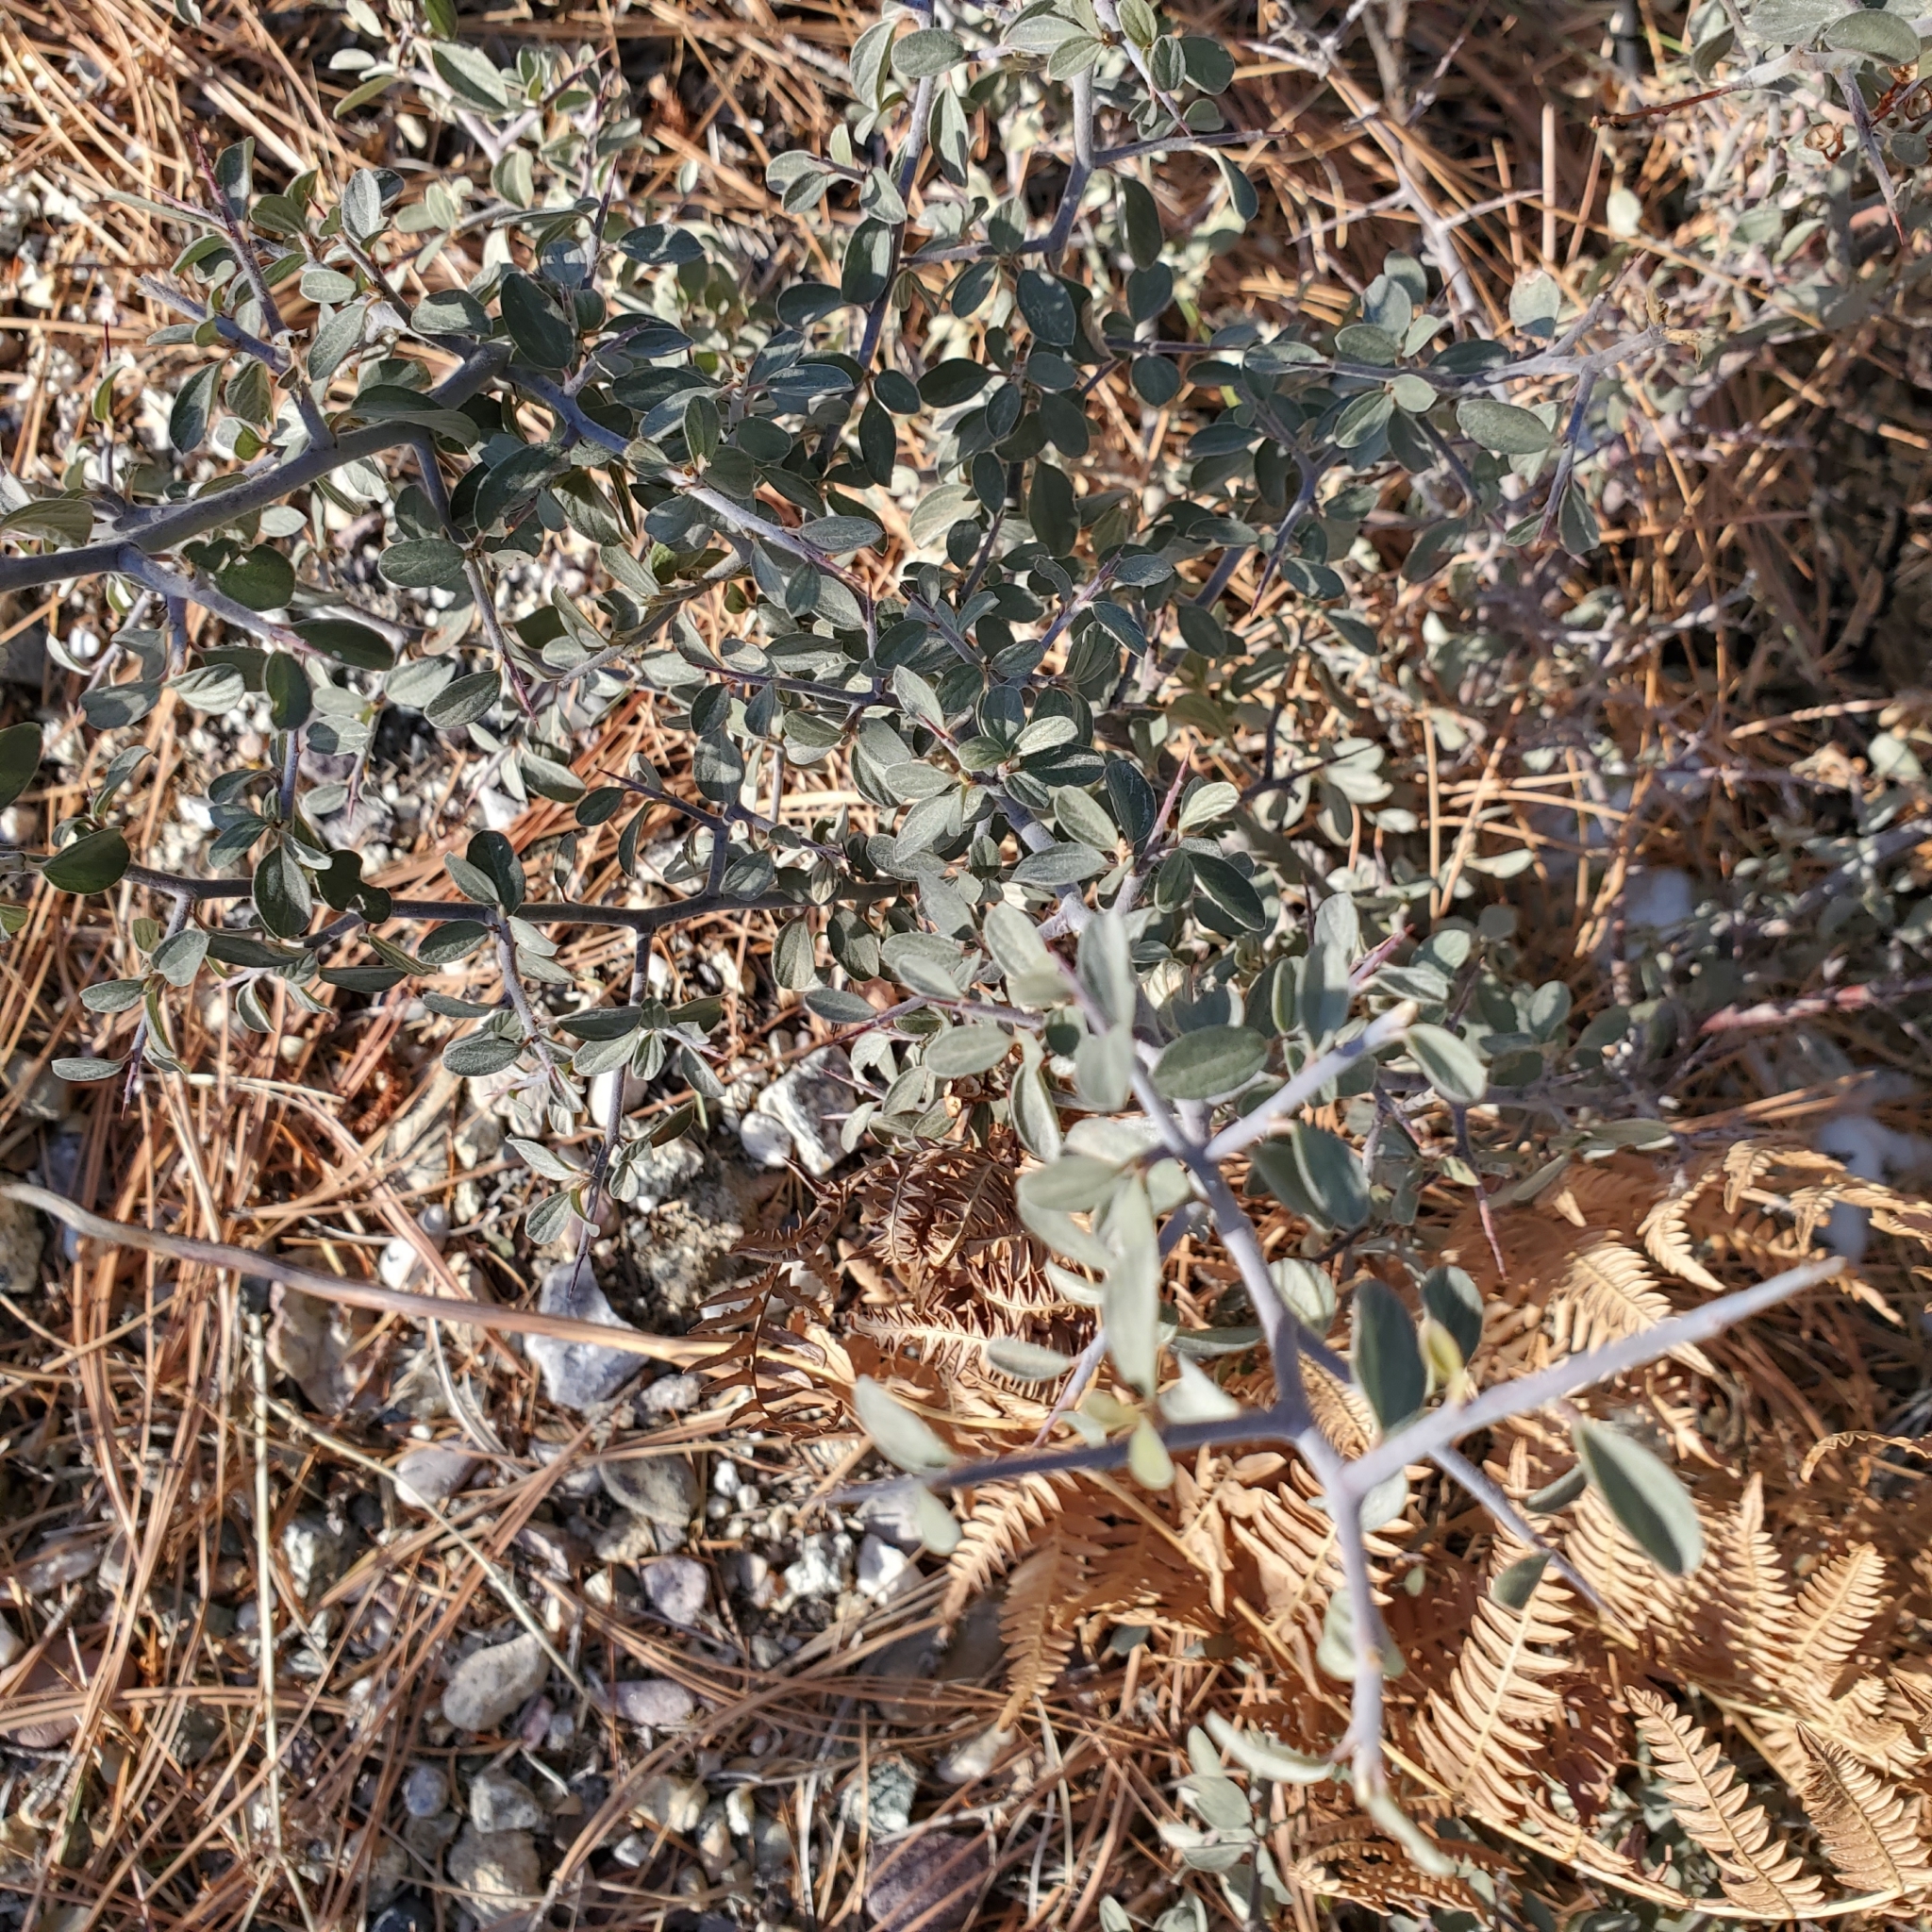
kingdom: Plantae
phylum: Tracheophyta
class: Magnoliopsida
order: Rosales
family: Rhamnaceae
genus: Ceanothus
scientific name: Ceanothus fendleri
